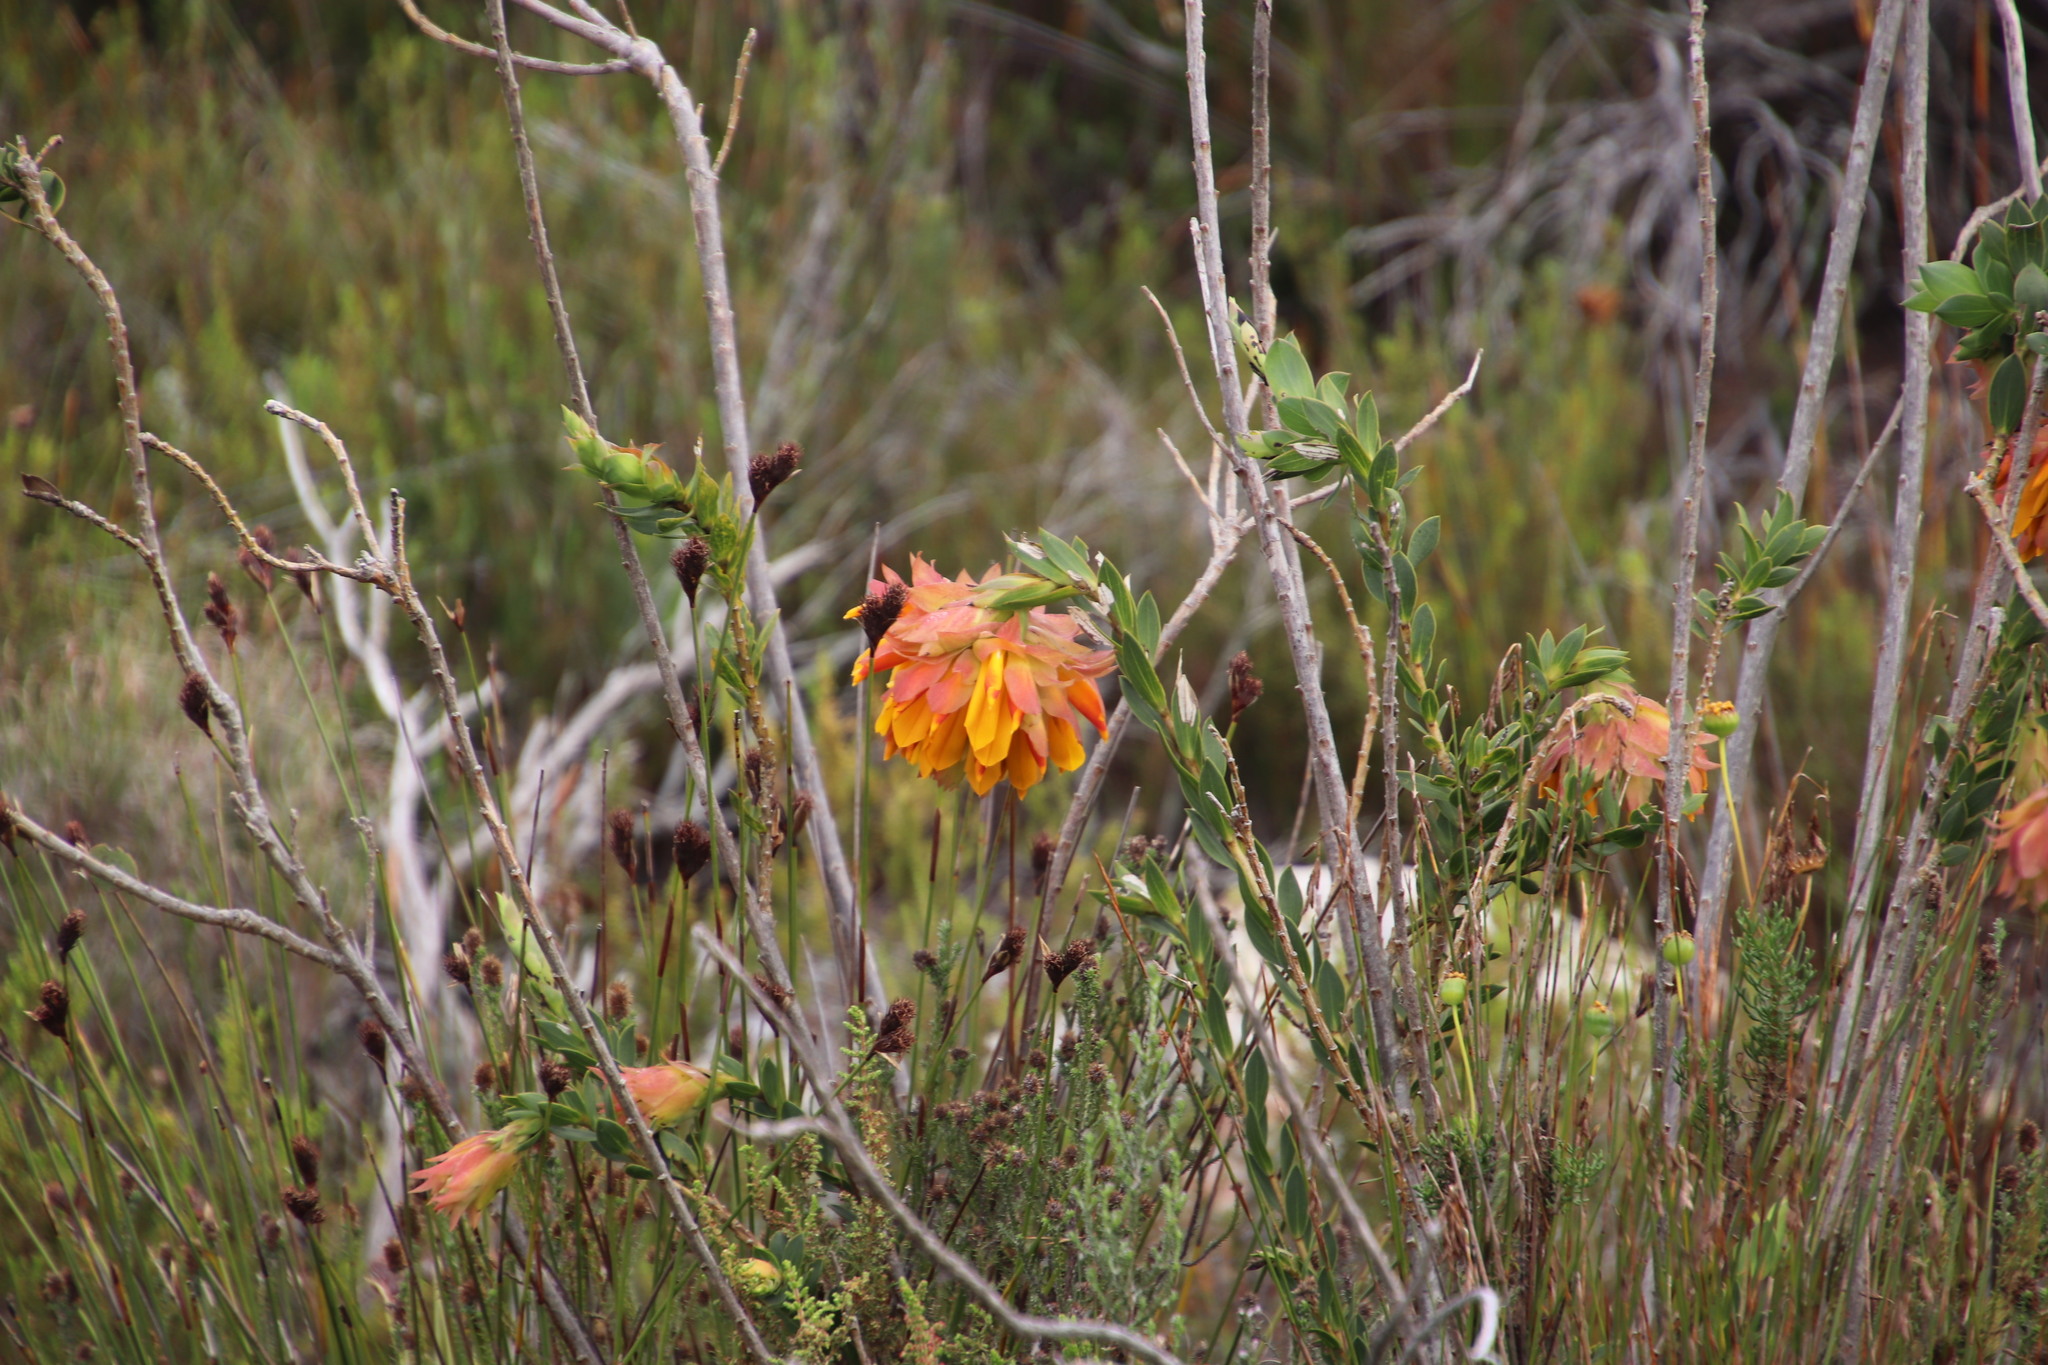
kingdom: Plantae
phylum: Tracheophyta
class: Magnoliopsida
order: Fabales
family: Fabaceae
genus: Liparia
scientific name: Liparia splendens
